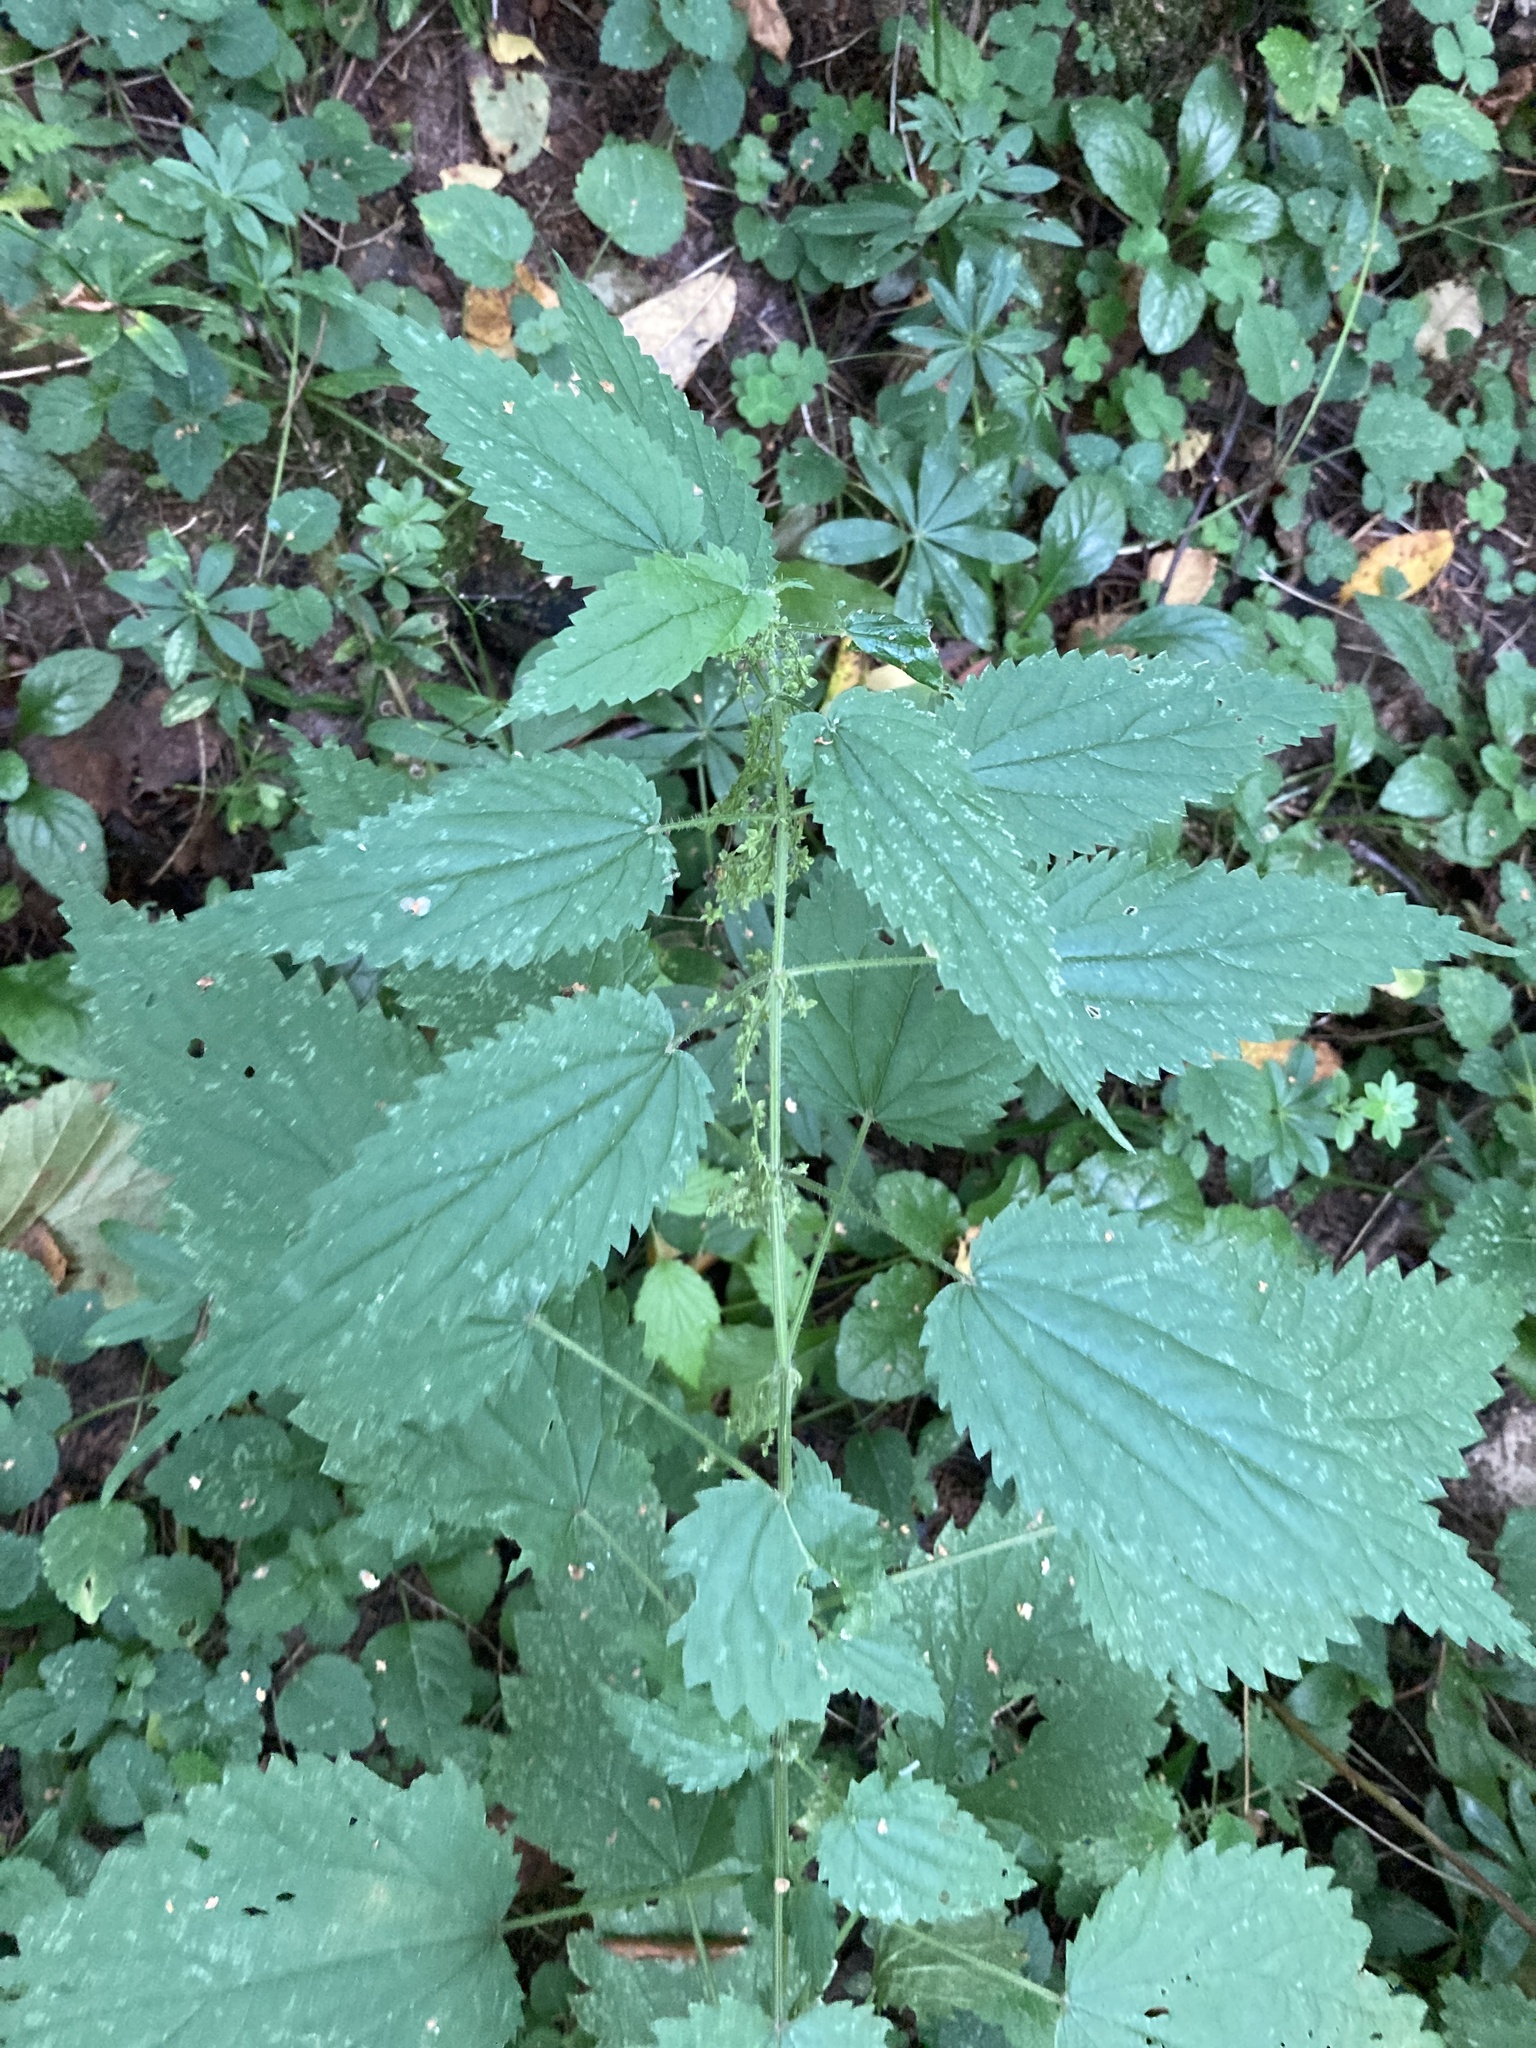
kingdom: Plantae
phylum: Tracheophyta
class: Magnoliopsida
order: Rosales
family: Urticaceae
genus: Urtica
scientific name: Urtica dioica
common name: Common nettle
